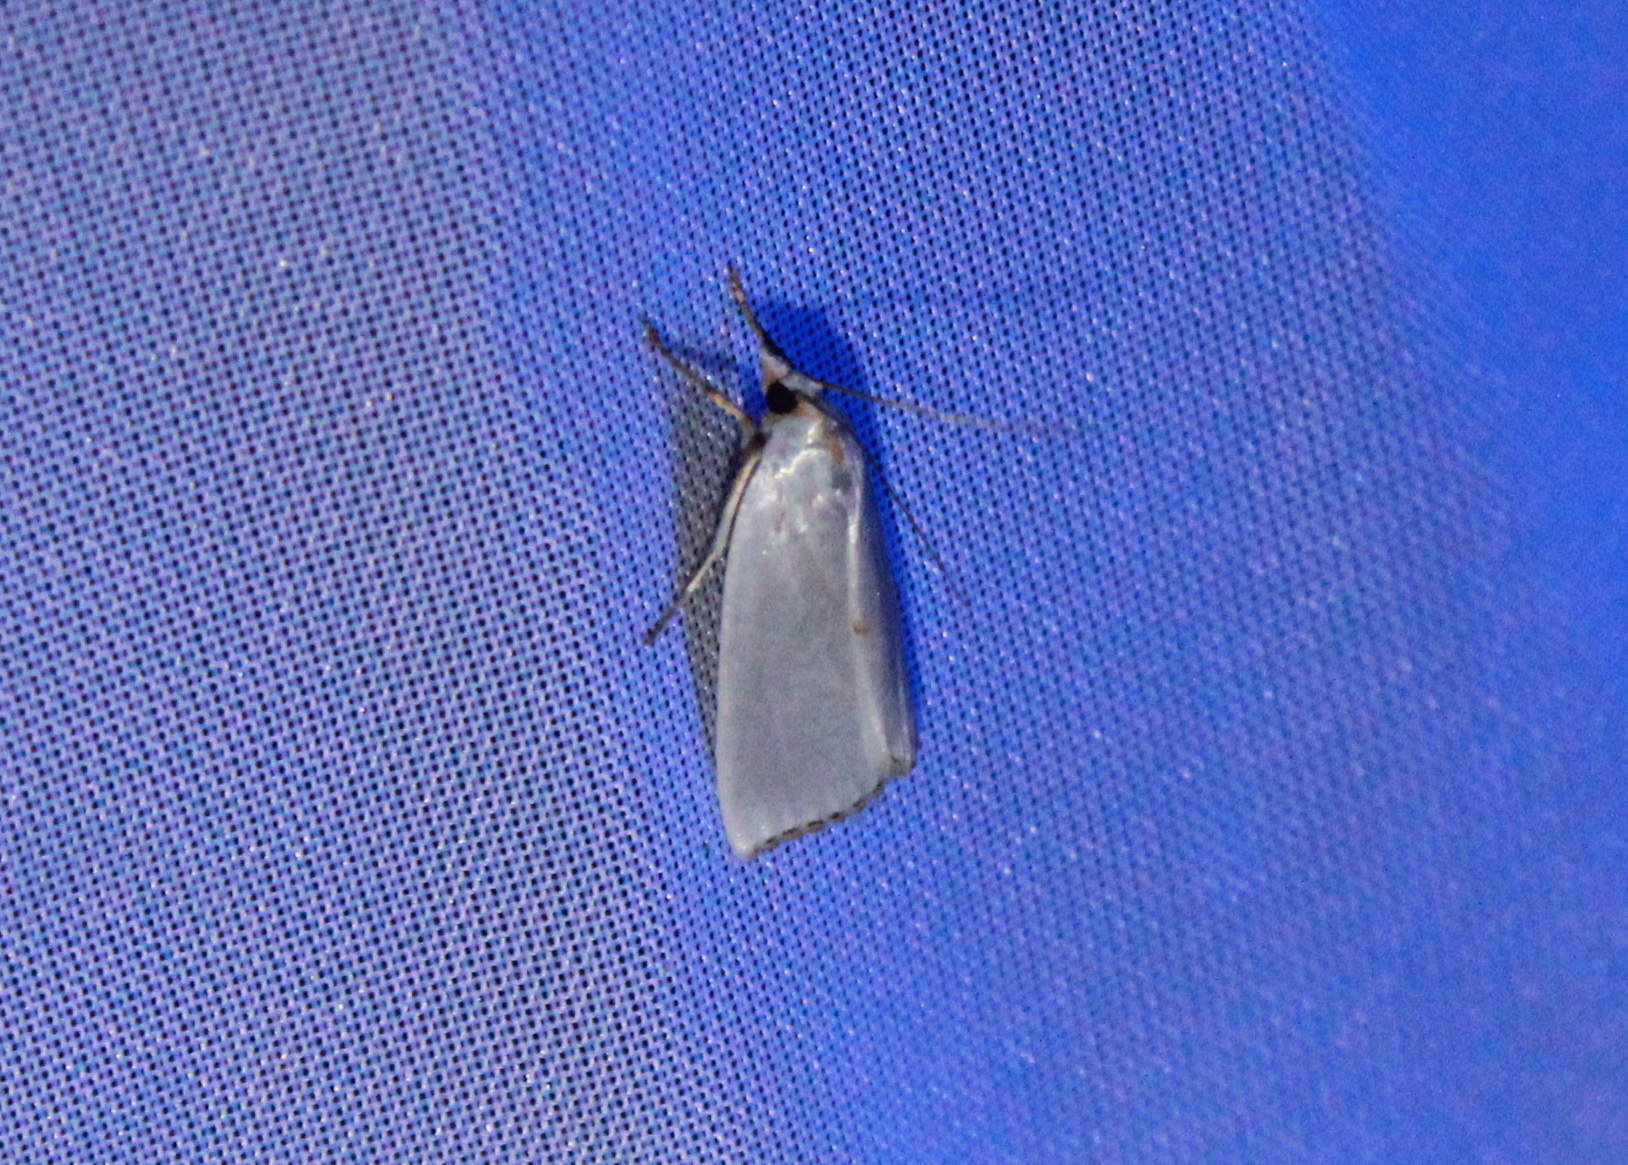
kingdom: Animalia
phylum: Arthropoda
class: Insecta
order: Lepidoptera
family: Crambidae
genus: Argyria
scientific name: Argyria nivalis
